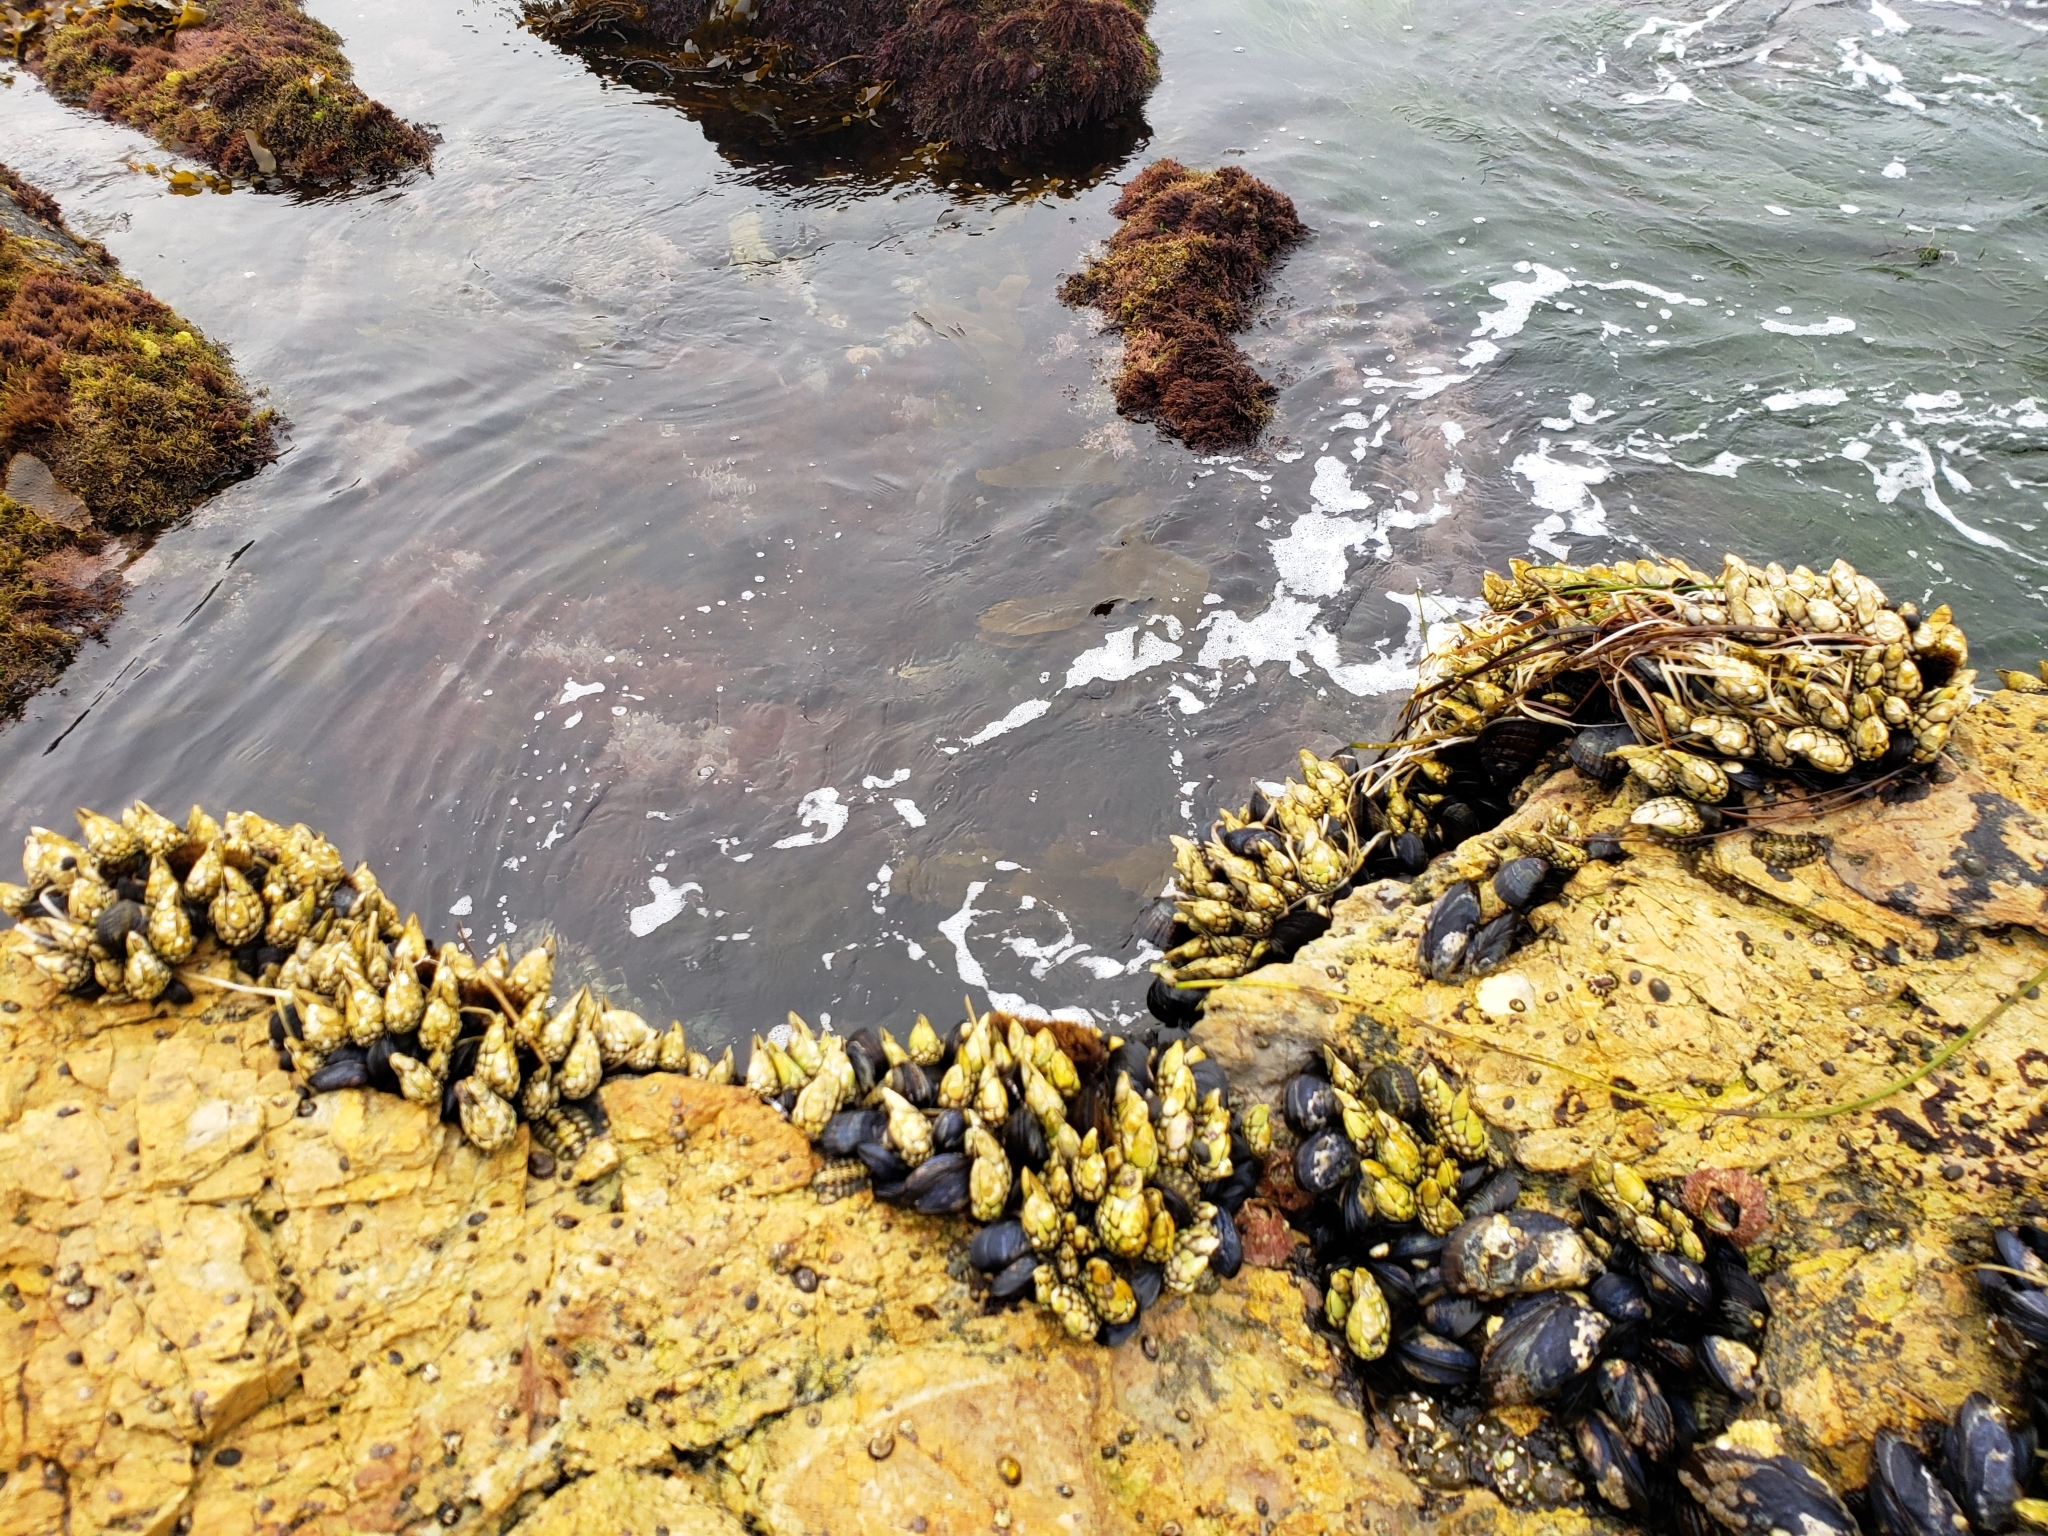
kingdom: Animalia
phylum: Arthropoda
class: Maxillopoda
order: Pedunculata
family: Pollicipedidae
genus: Pollicipes
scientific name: Pollicipes polymerus
